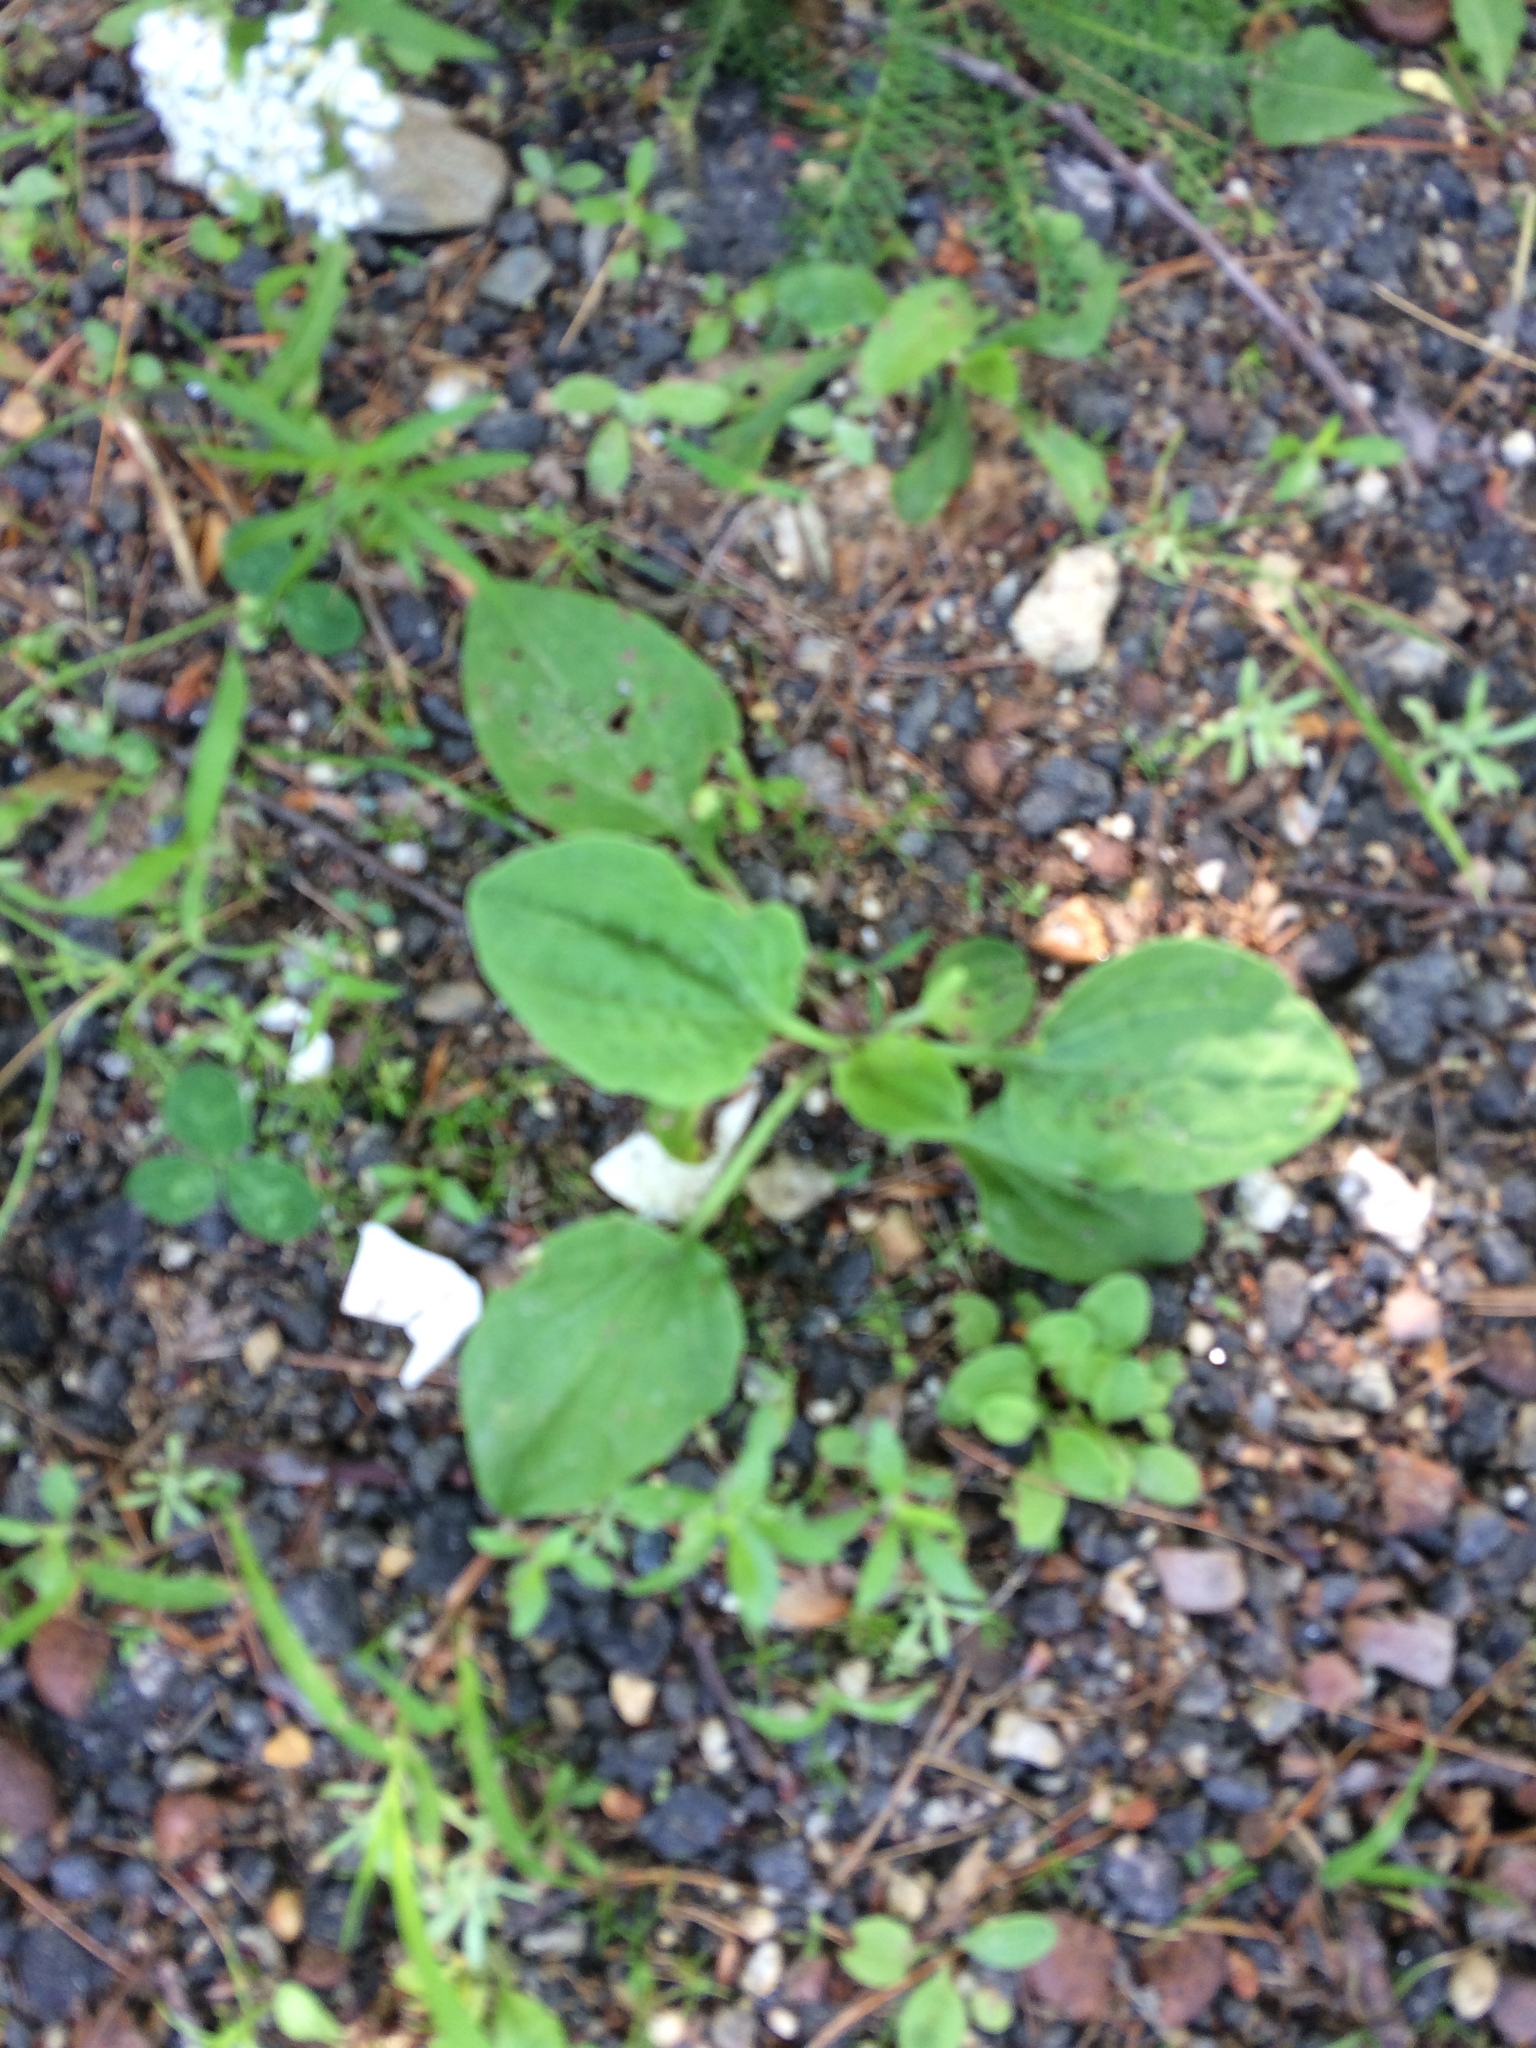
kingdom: Plantae
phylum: Tracheophyta
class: Magnoliopsida
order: Lamiales
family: Plantaginaceae
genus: Plantago
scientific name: Plantago major
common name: Common plantain
